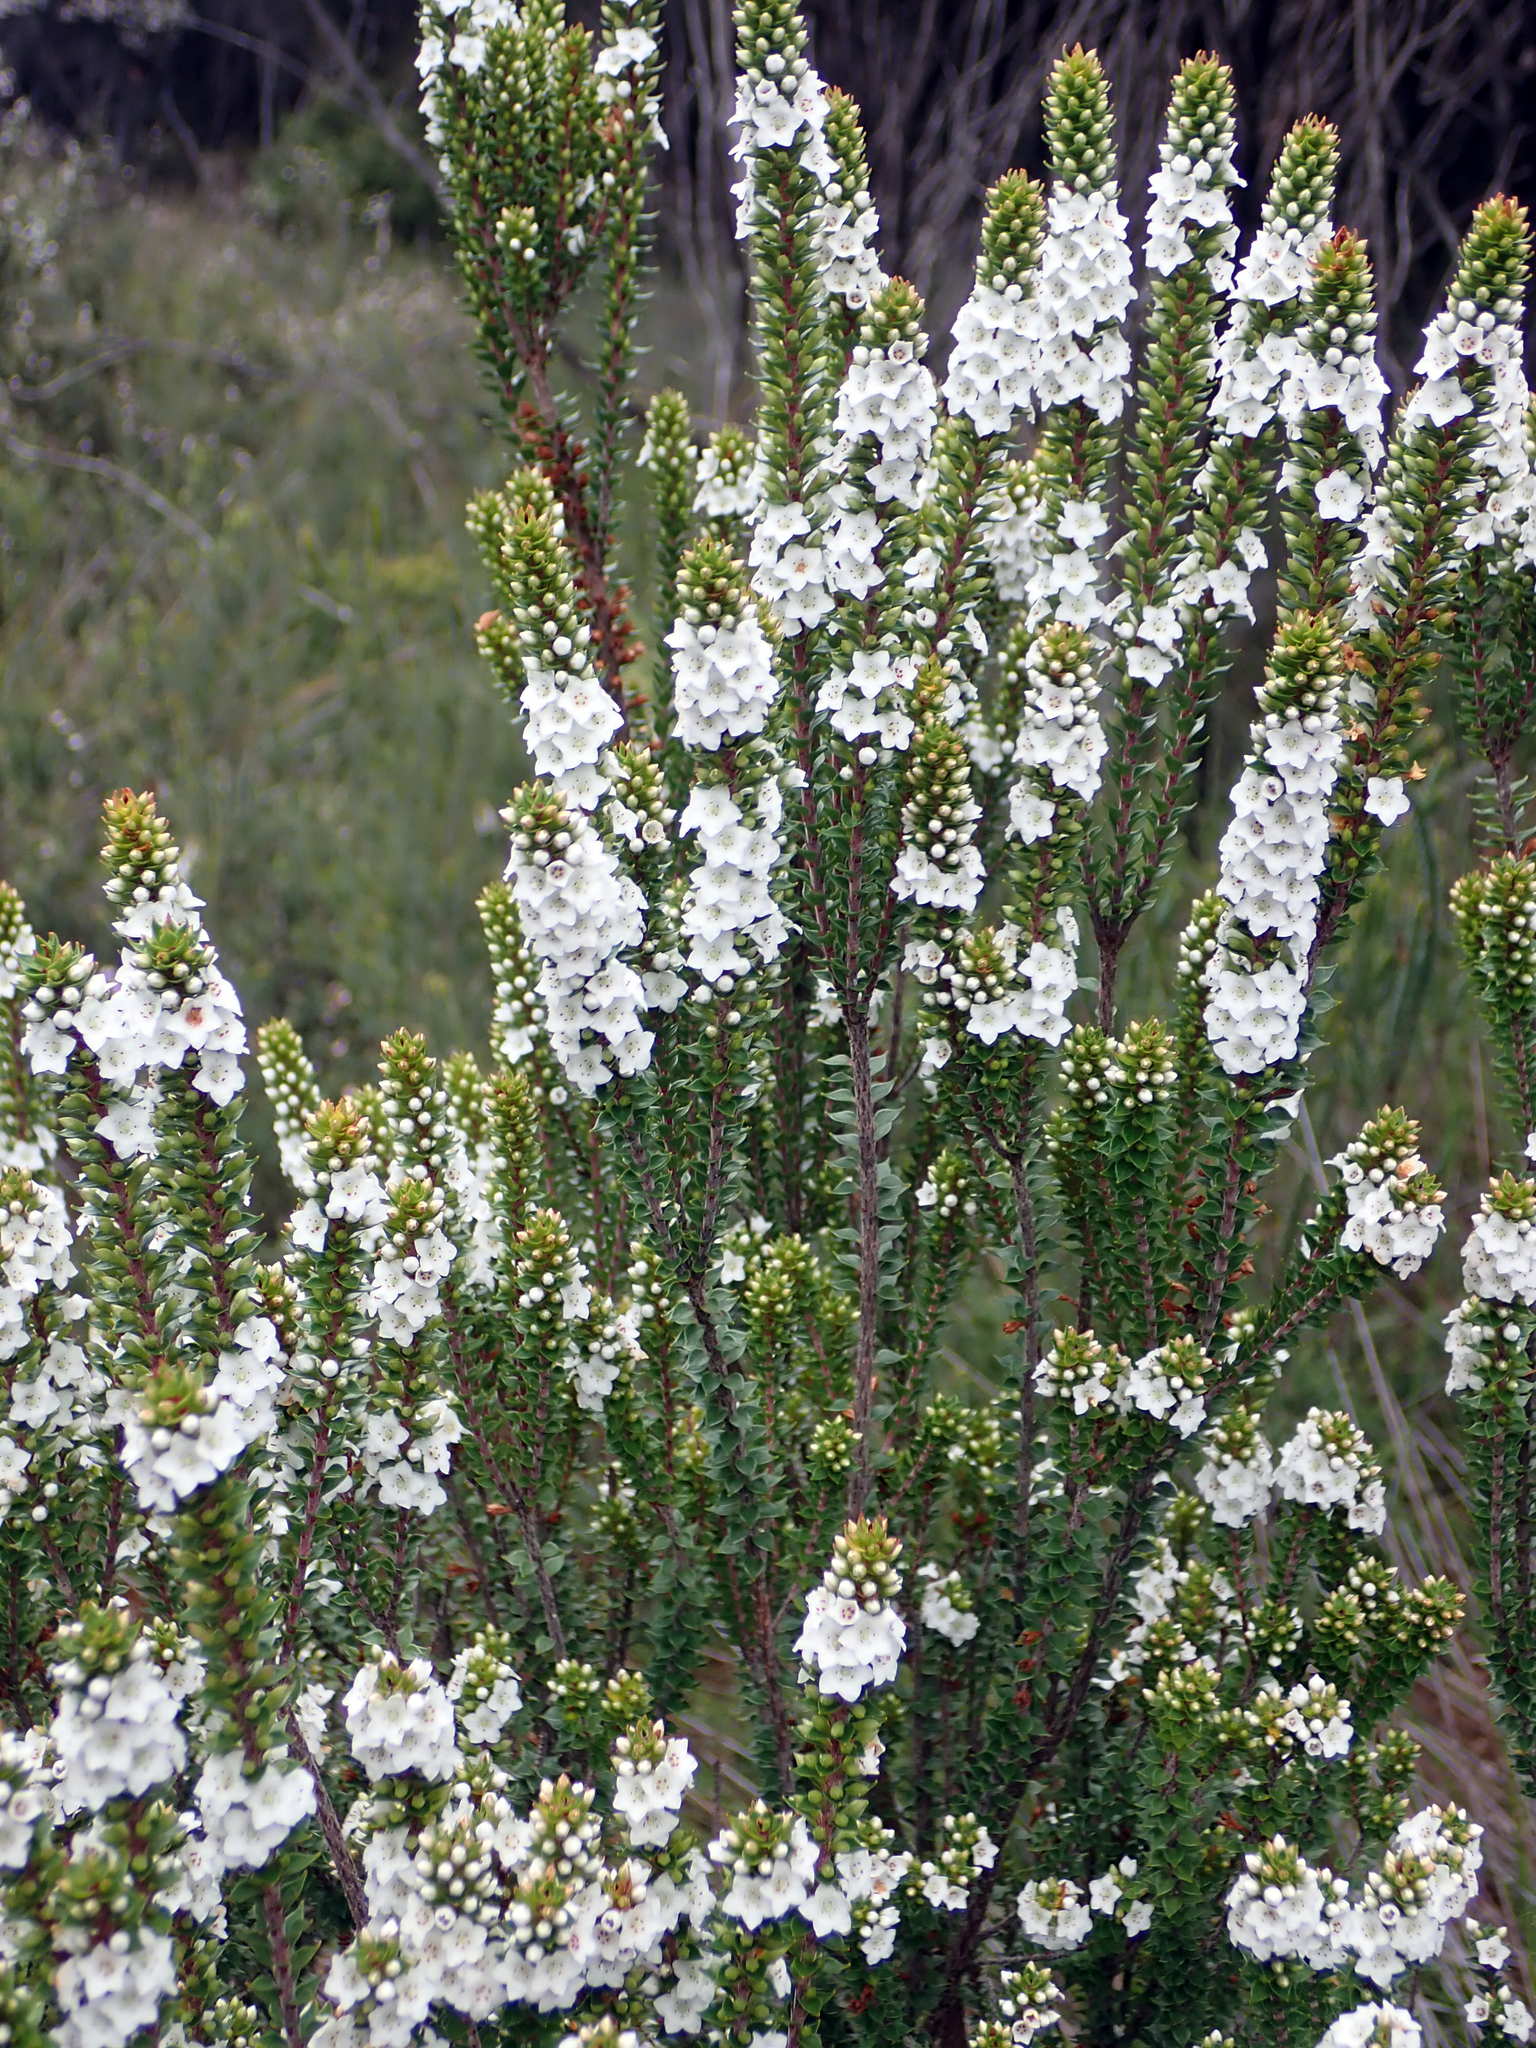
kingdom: Plantae
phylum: Tracheophyta
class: Magnoliopsida
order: Ericales
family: Ericaceae
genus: Epacris
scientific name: Epacris pauciflora
